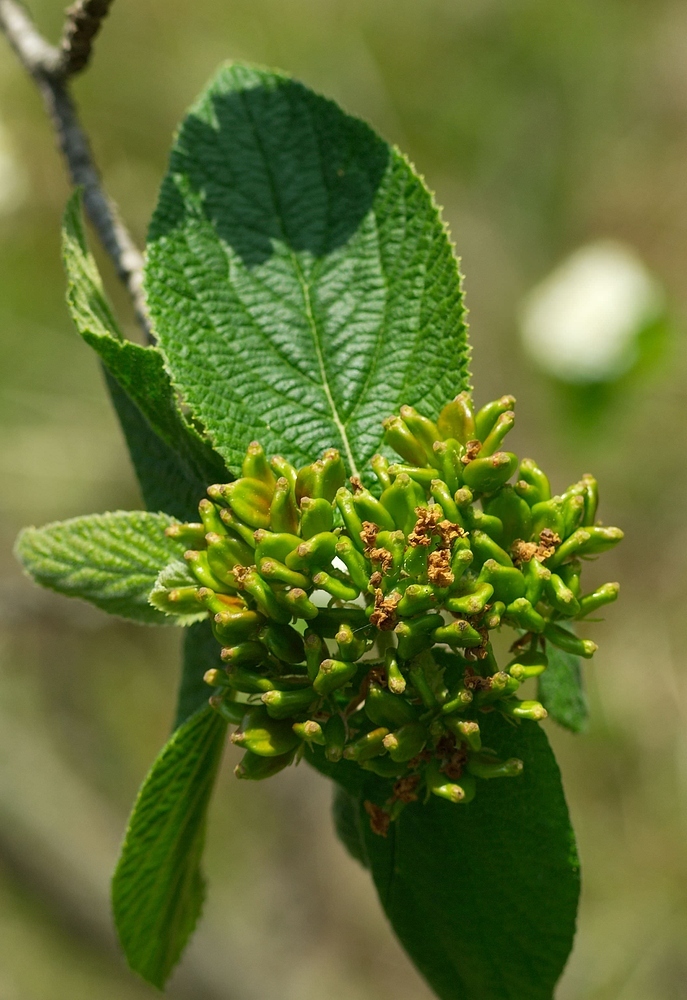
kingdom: Plantae
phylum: Tracheophyta
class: Magnoliopsida
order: Dipsacales
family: Viburnaceae
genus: Viburnum
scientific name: Viburnum lantana
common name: Wayfaring tree
